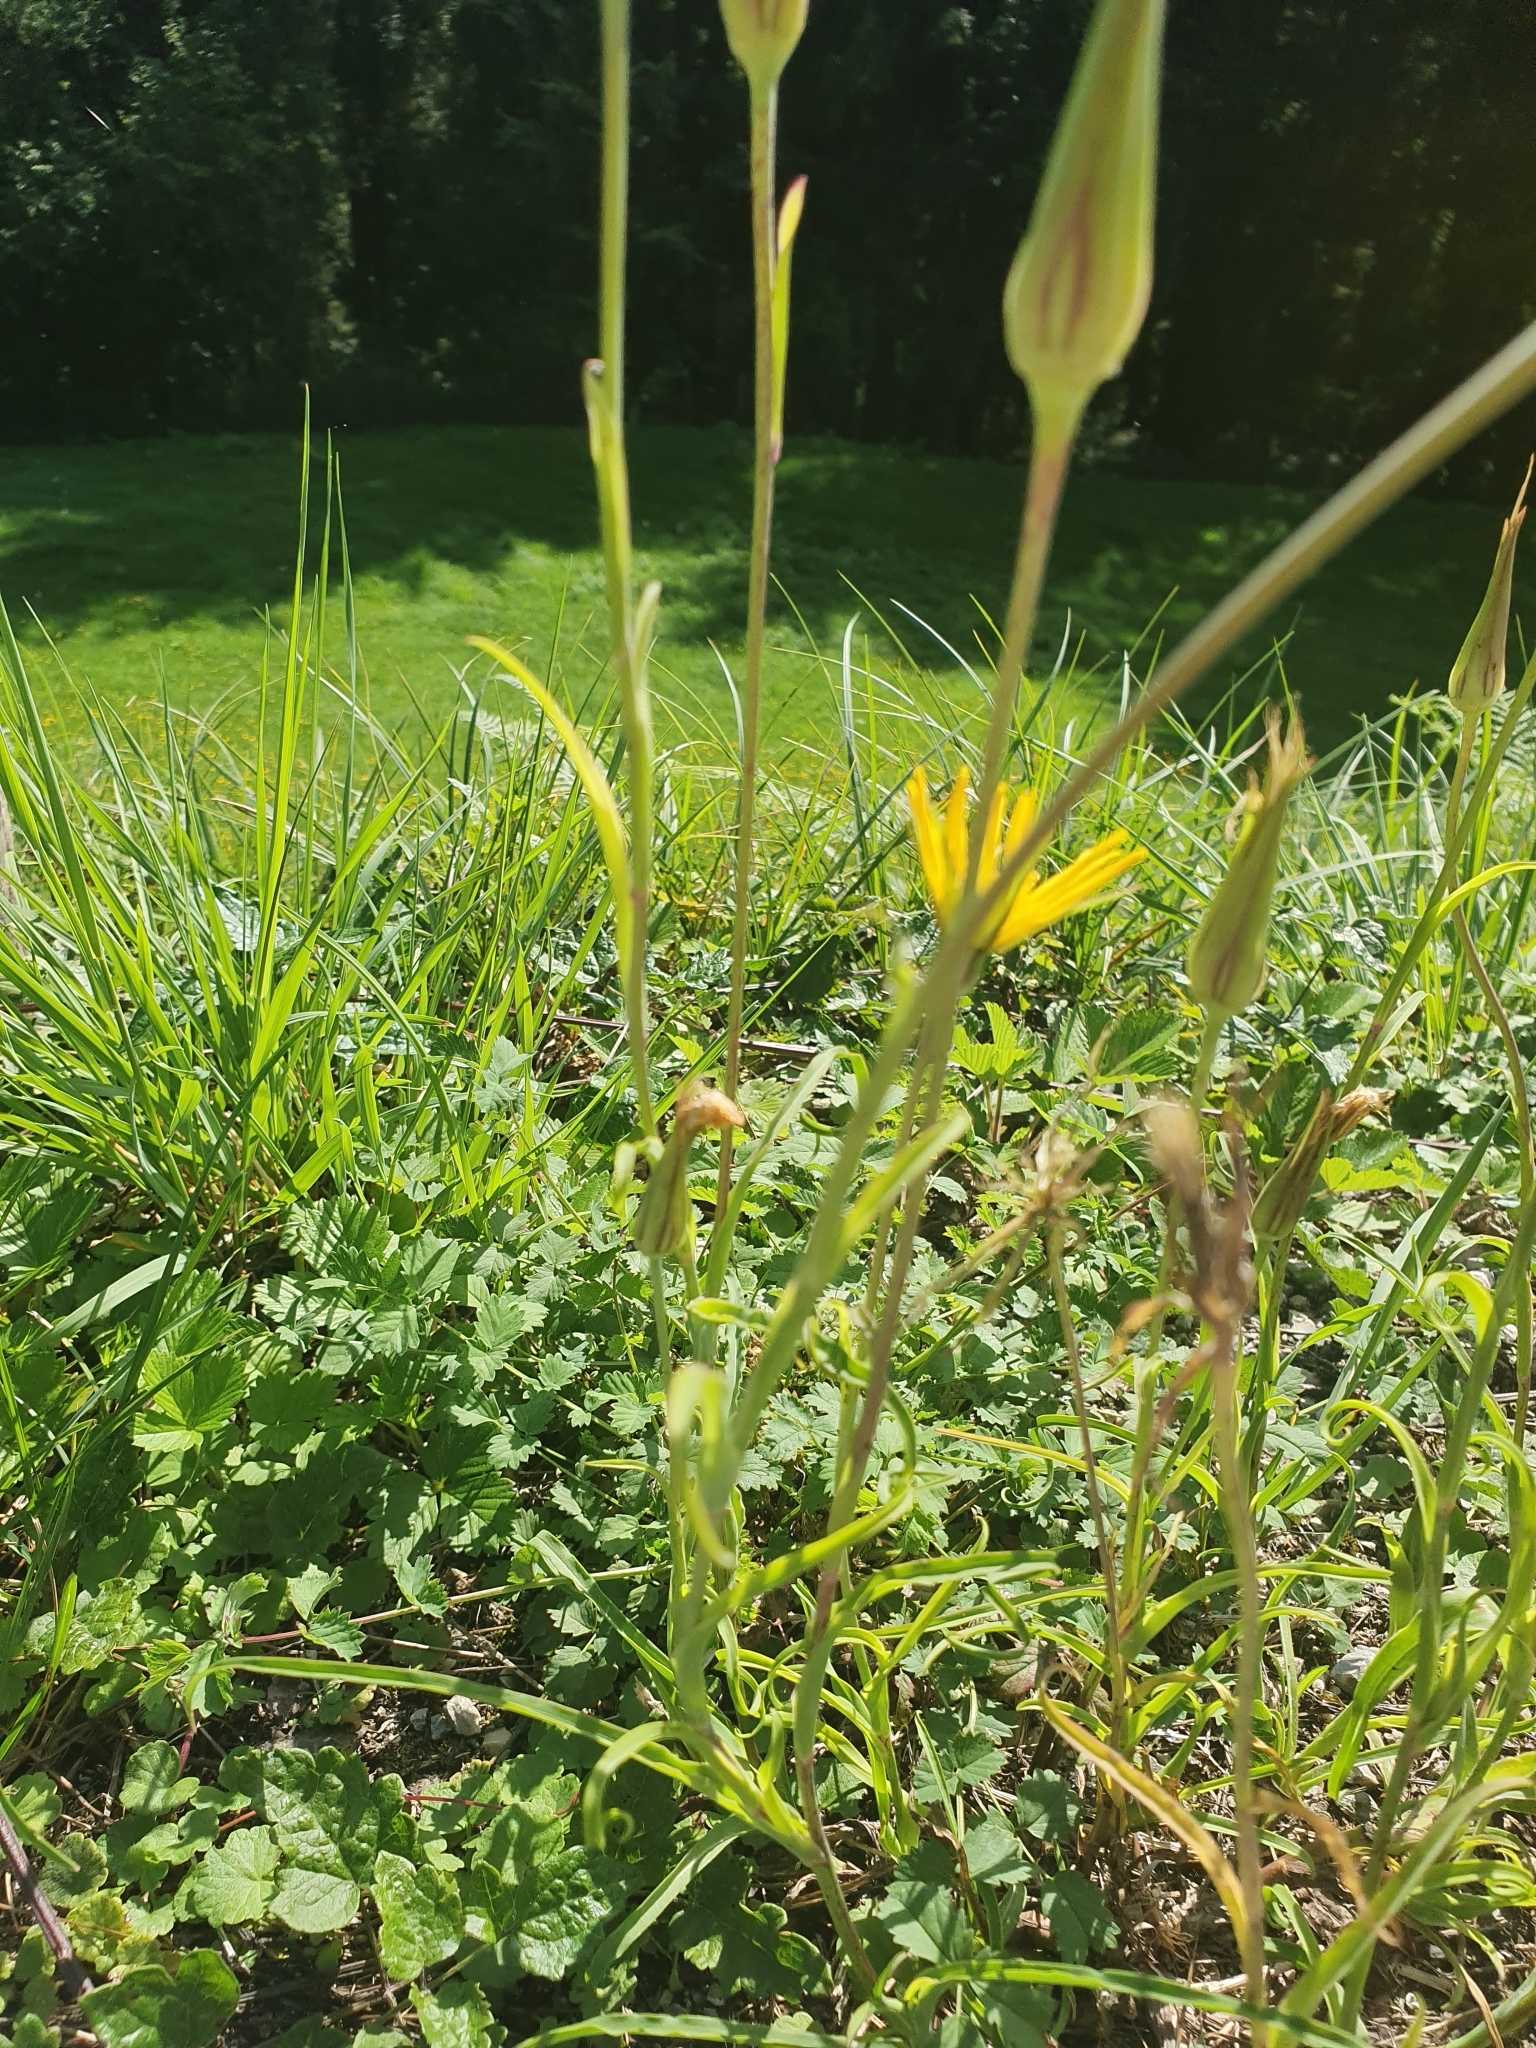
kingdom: Plantae
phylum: Tracheophyta
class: Magnoliopsida
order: Asterales
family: Asteraceae
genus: Tragopogon
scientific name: Tragopogon orientalis
